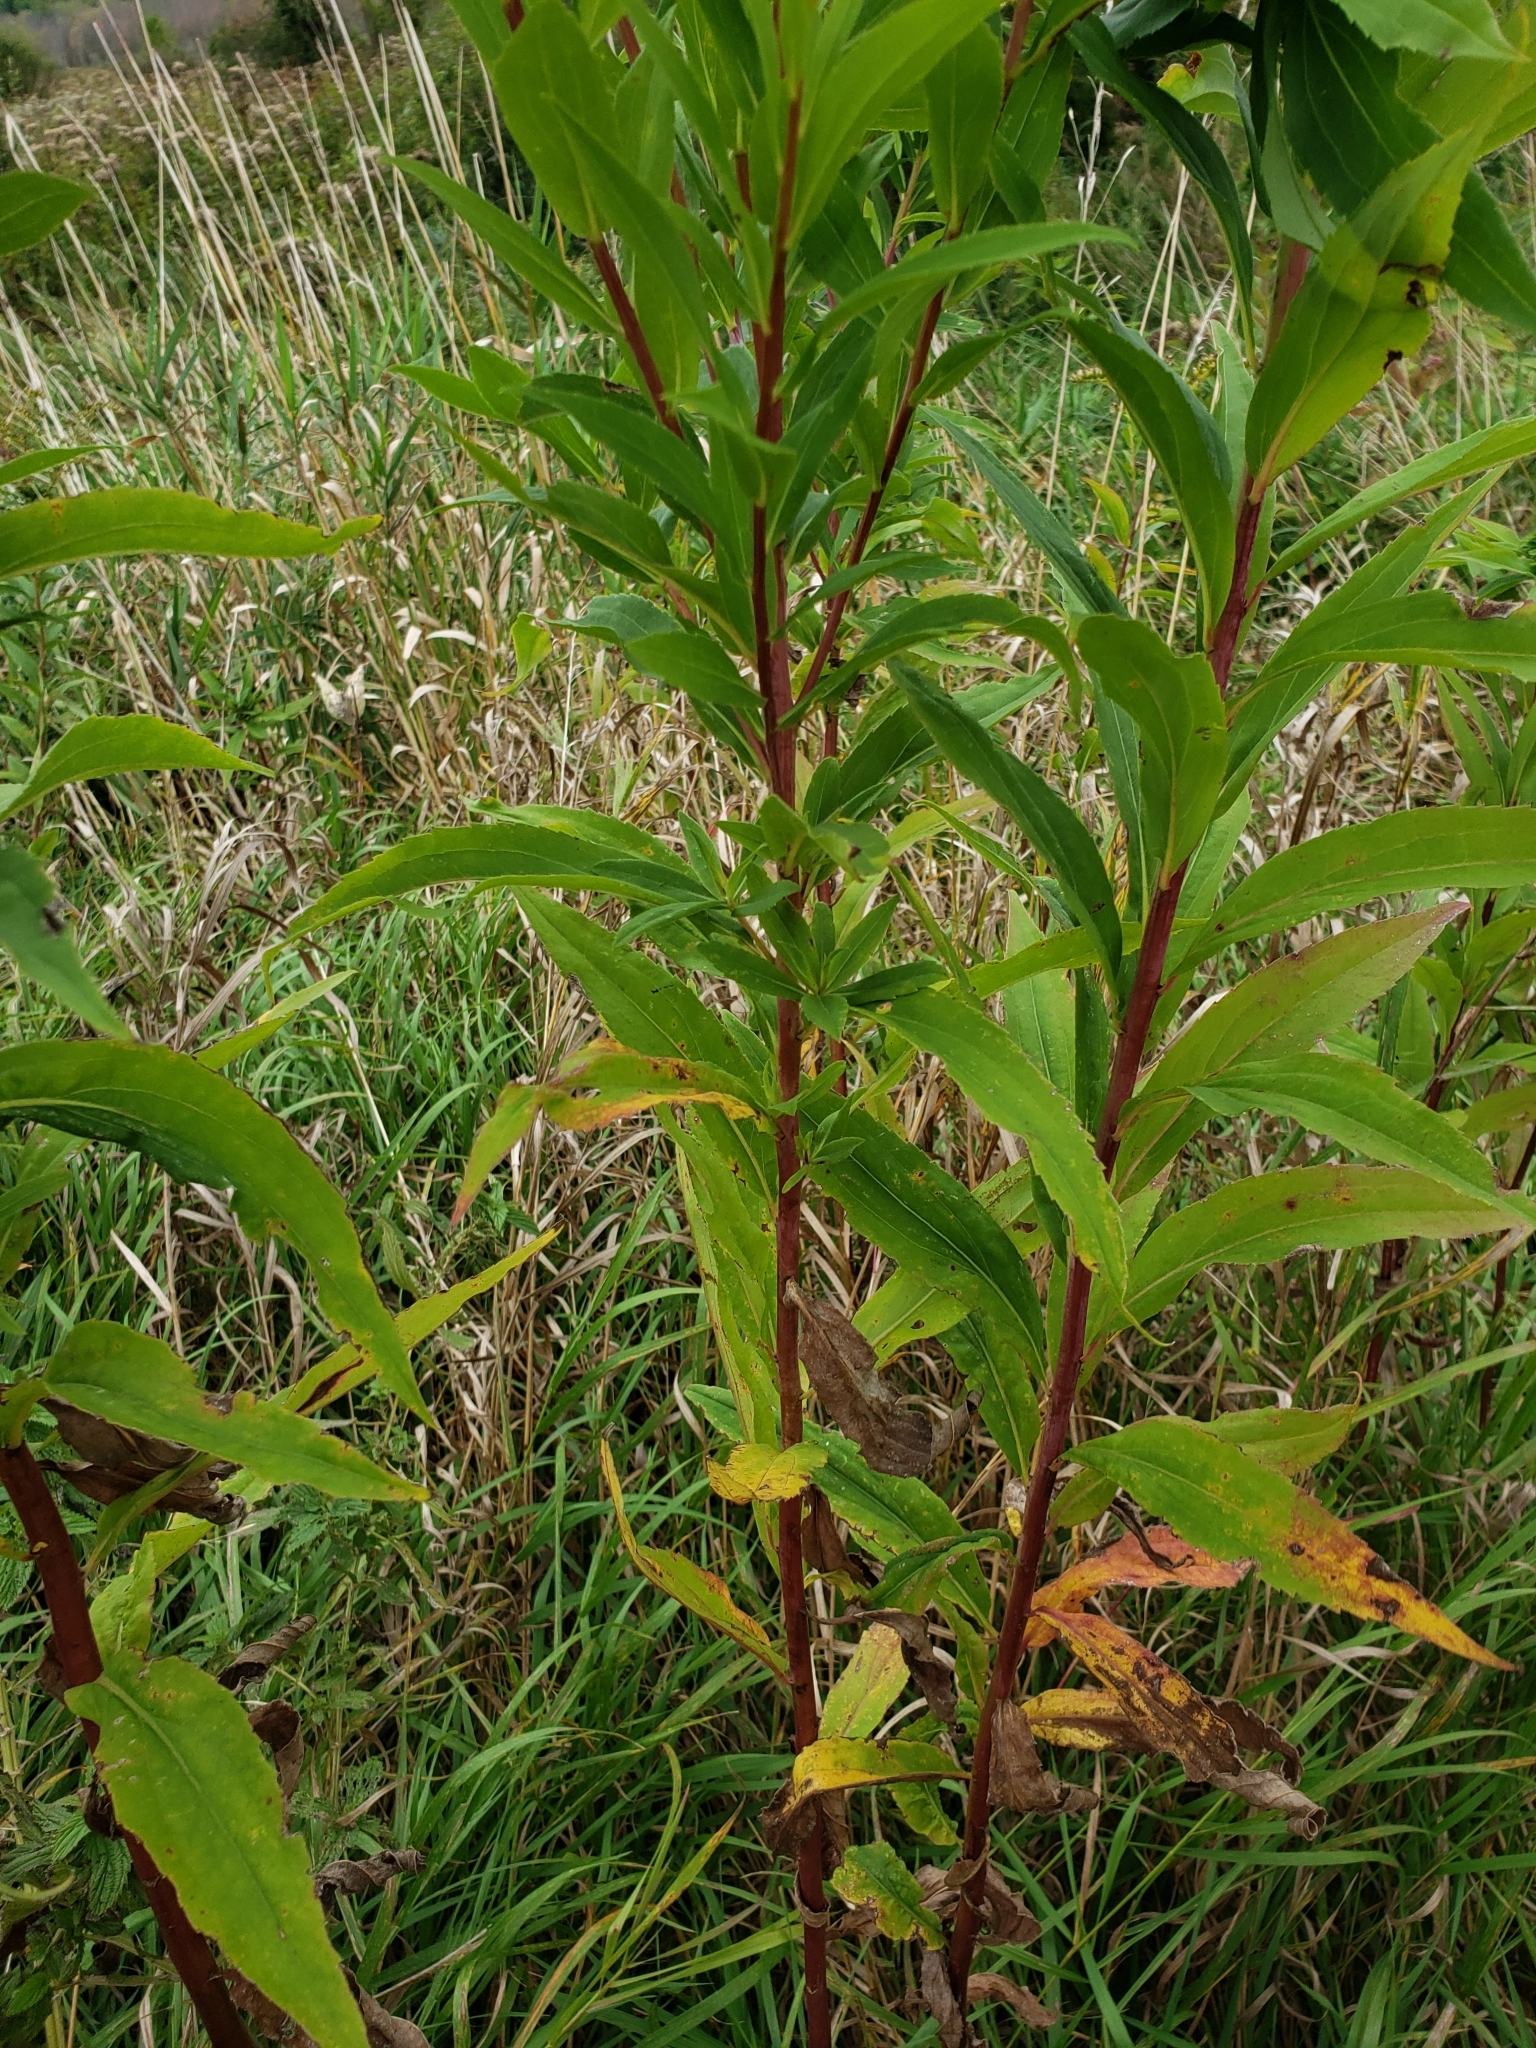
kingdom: Plantae
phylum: Tracheophyta
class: Magnoliopsida
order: Asterales
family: Asteraceae
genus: Solidago
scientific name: Solidago gigantea
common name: Giant goldenrod
